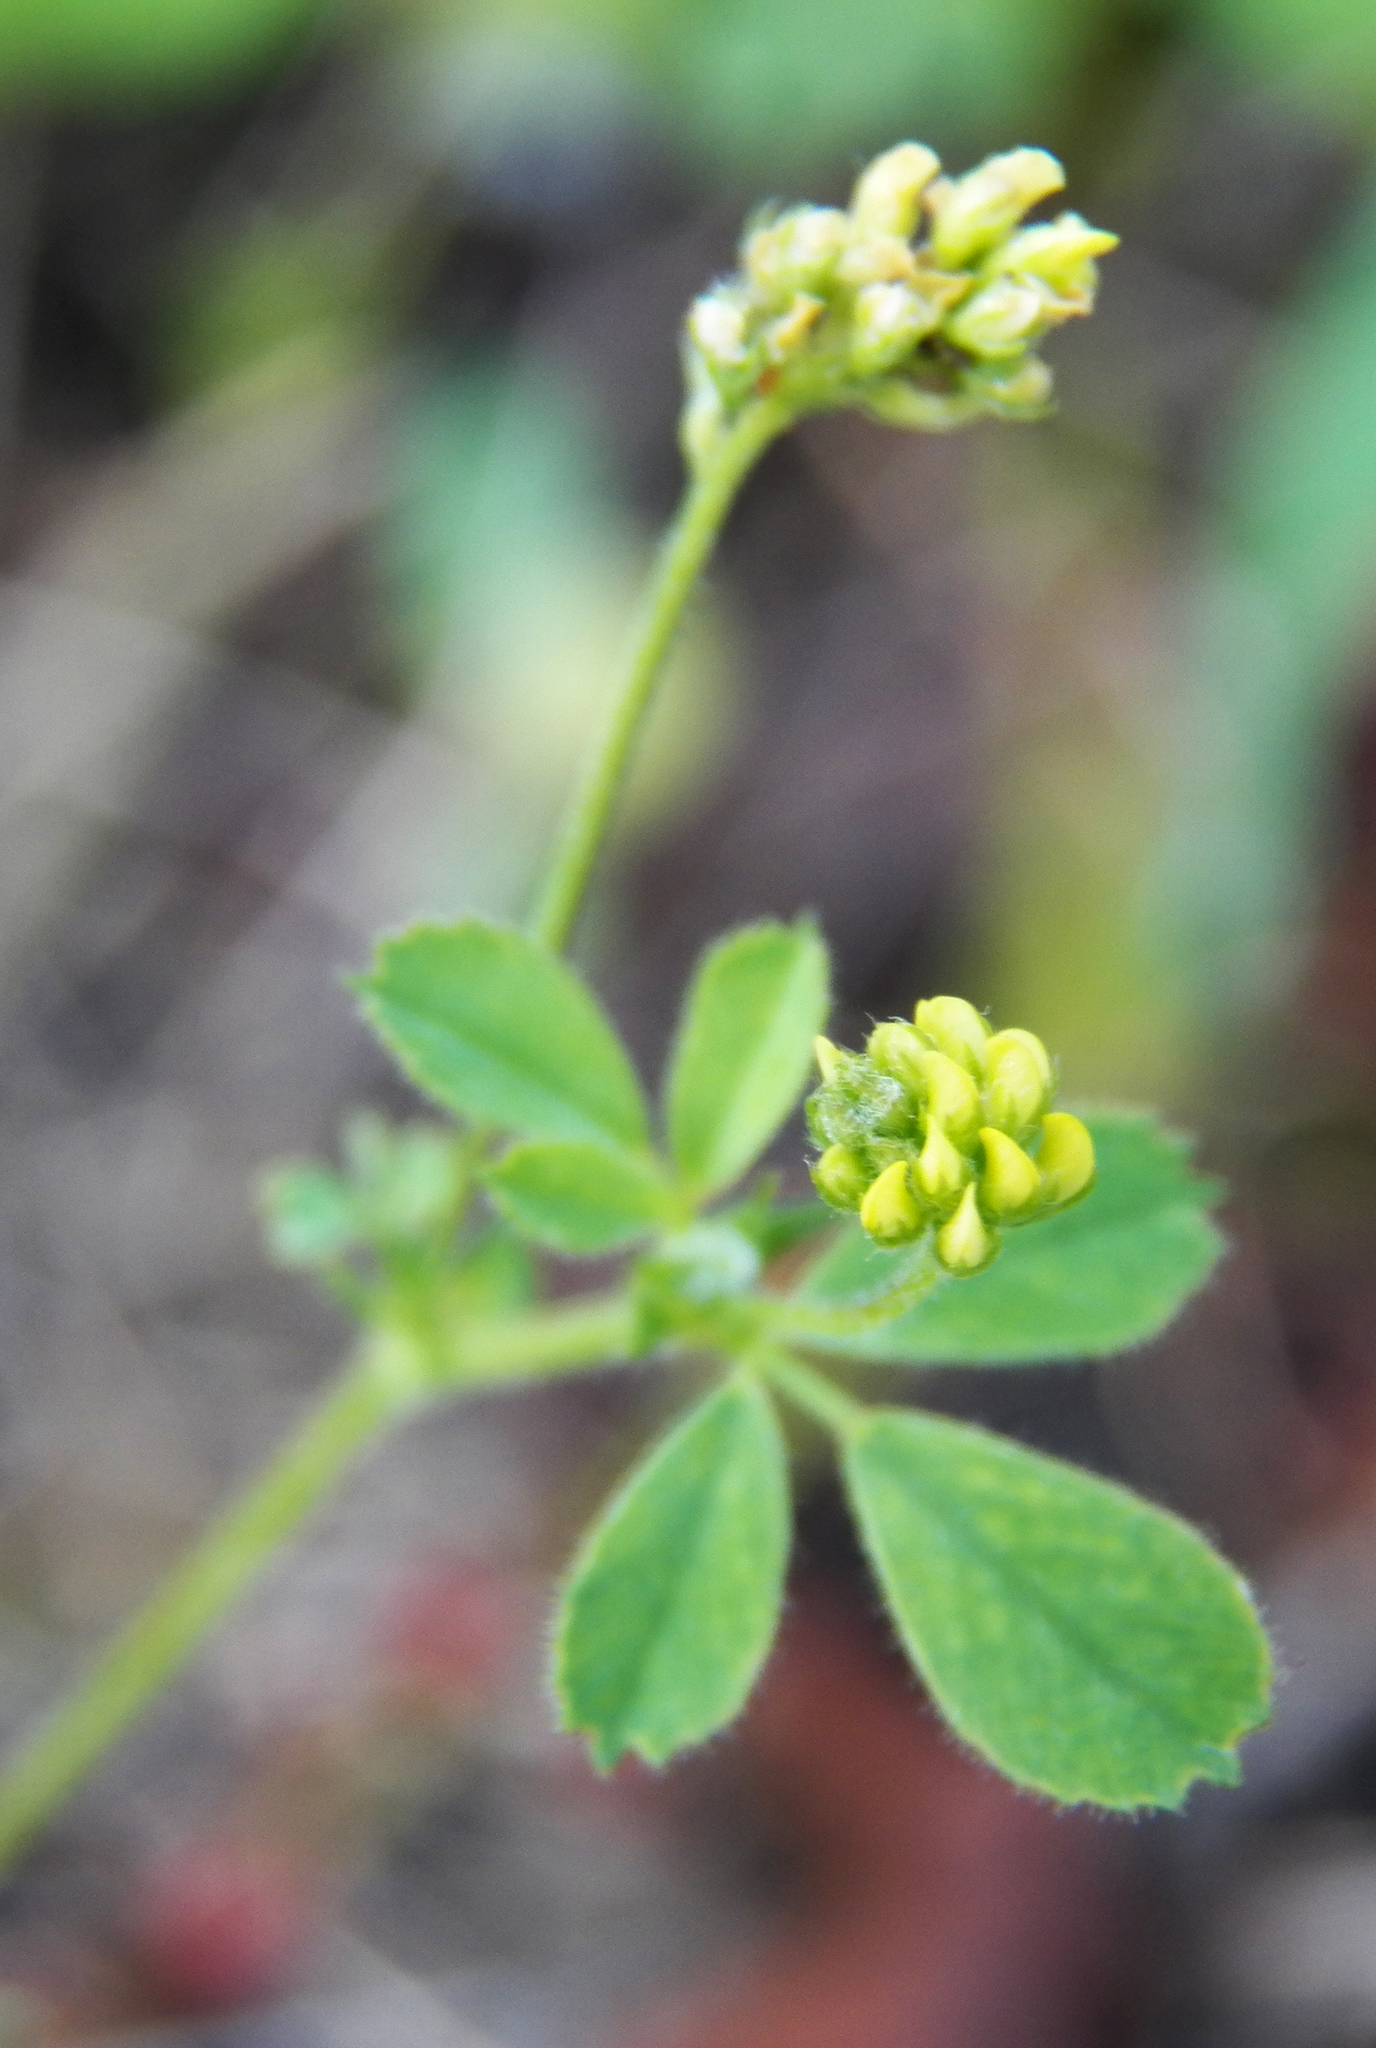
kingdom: Plantae
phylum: Tracheophyta
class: Magnoliopsida
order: Fabales
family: Fabaceae
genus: Medicago
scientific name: Medicago lupulina
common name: Black medick
